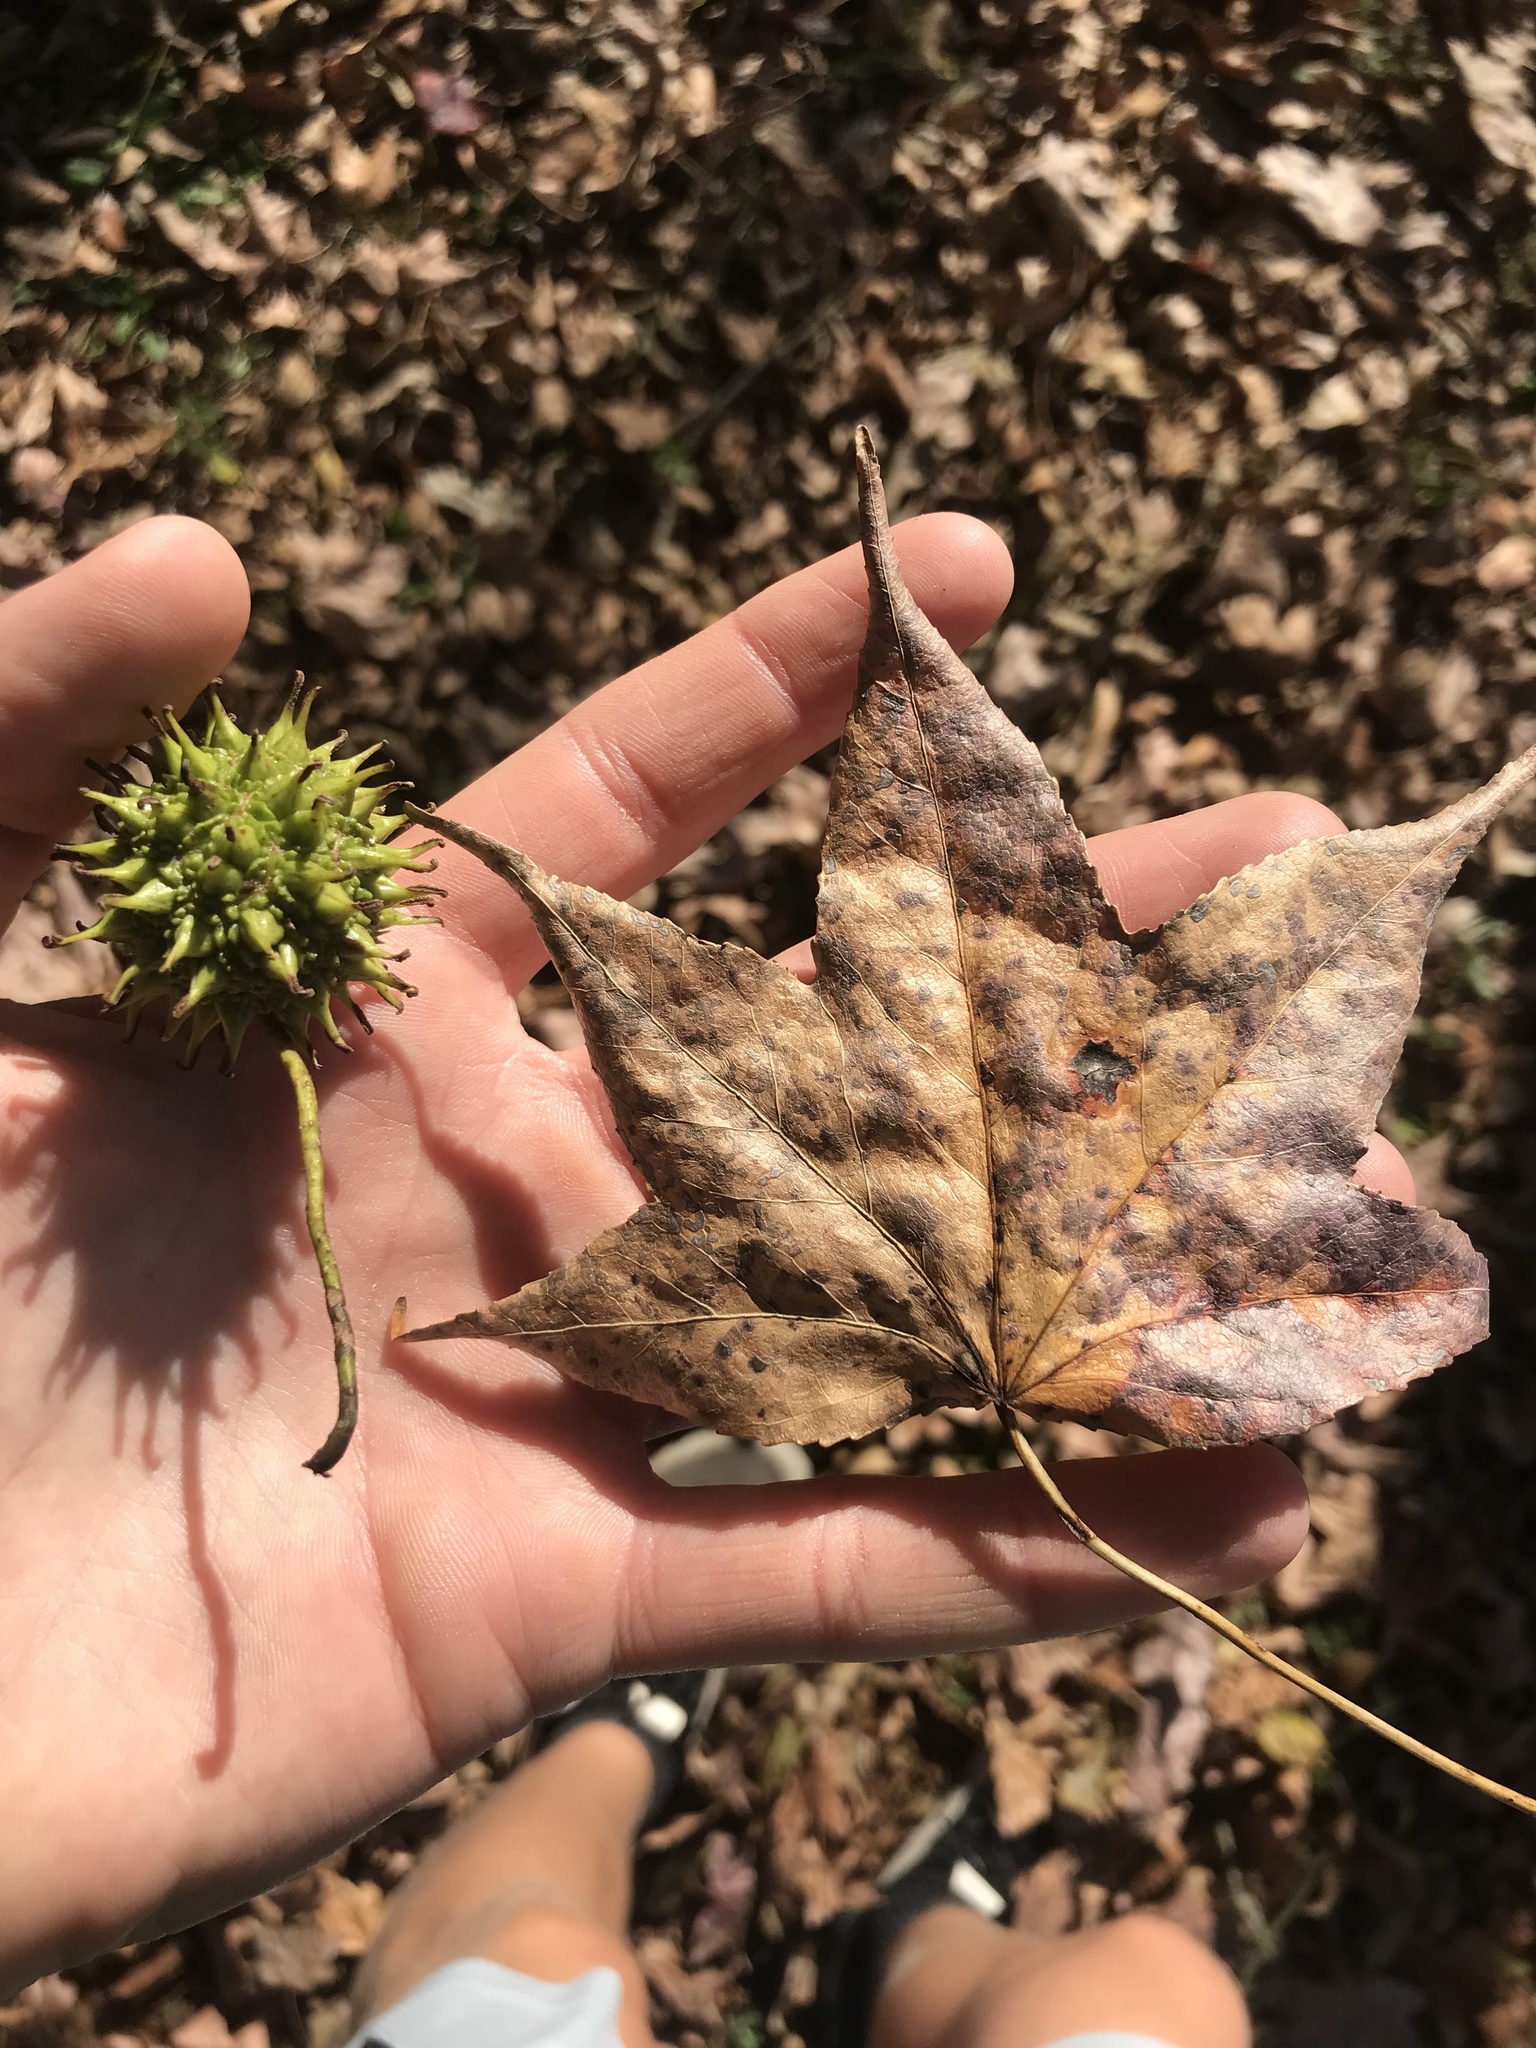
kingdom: Plantae
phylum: Tracheophyta
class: Magnoliopsida
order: Saxifragales
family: Altingiaceae
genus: Liquidambar
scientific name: Liquidambar styraciflua
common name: Sweet gum
